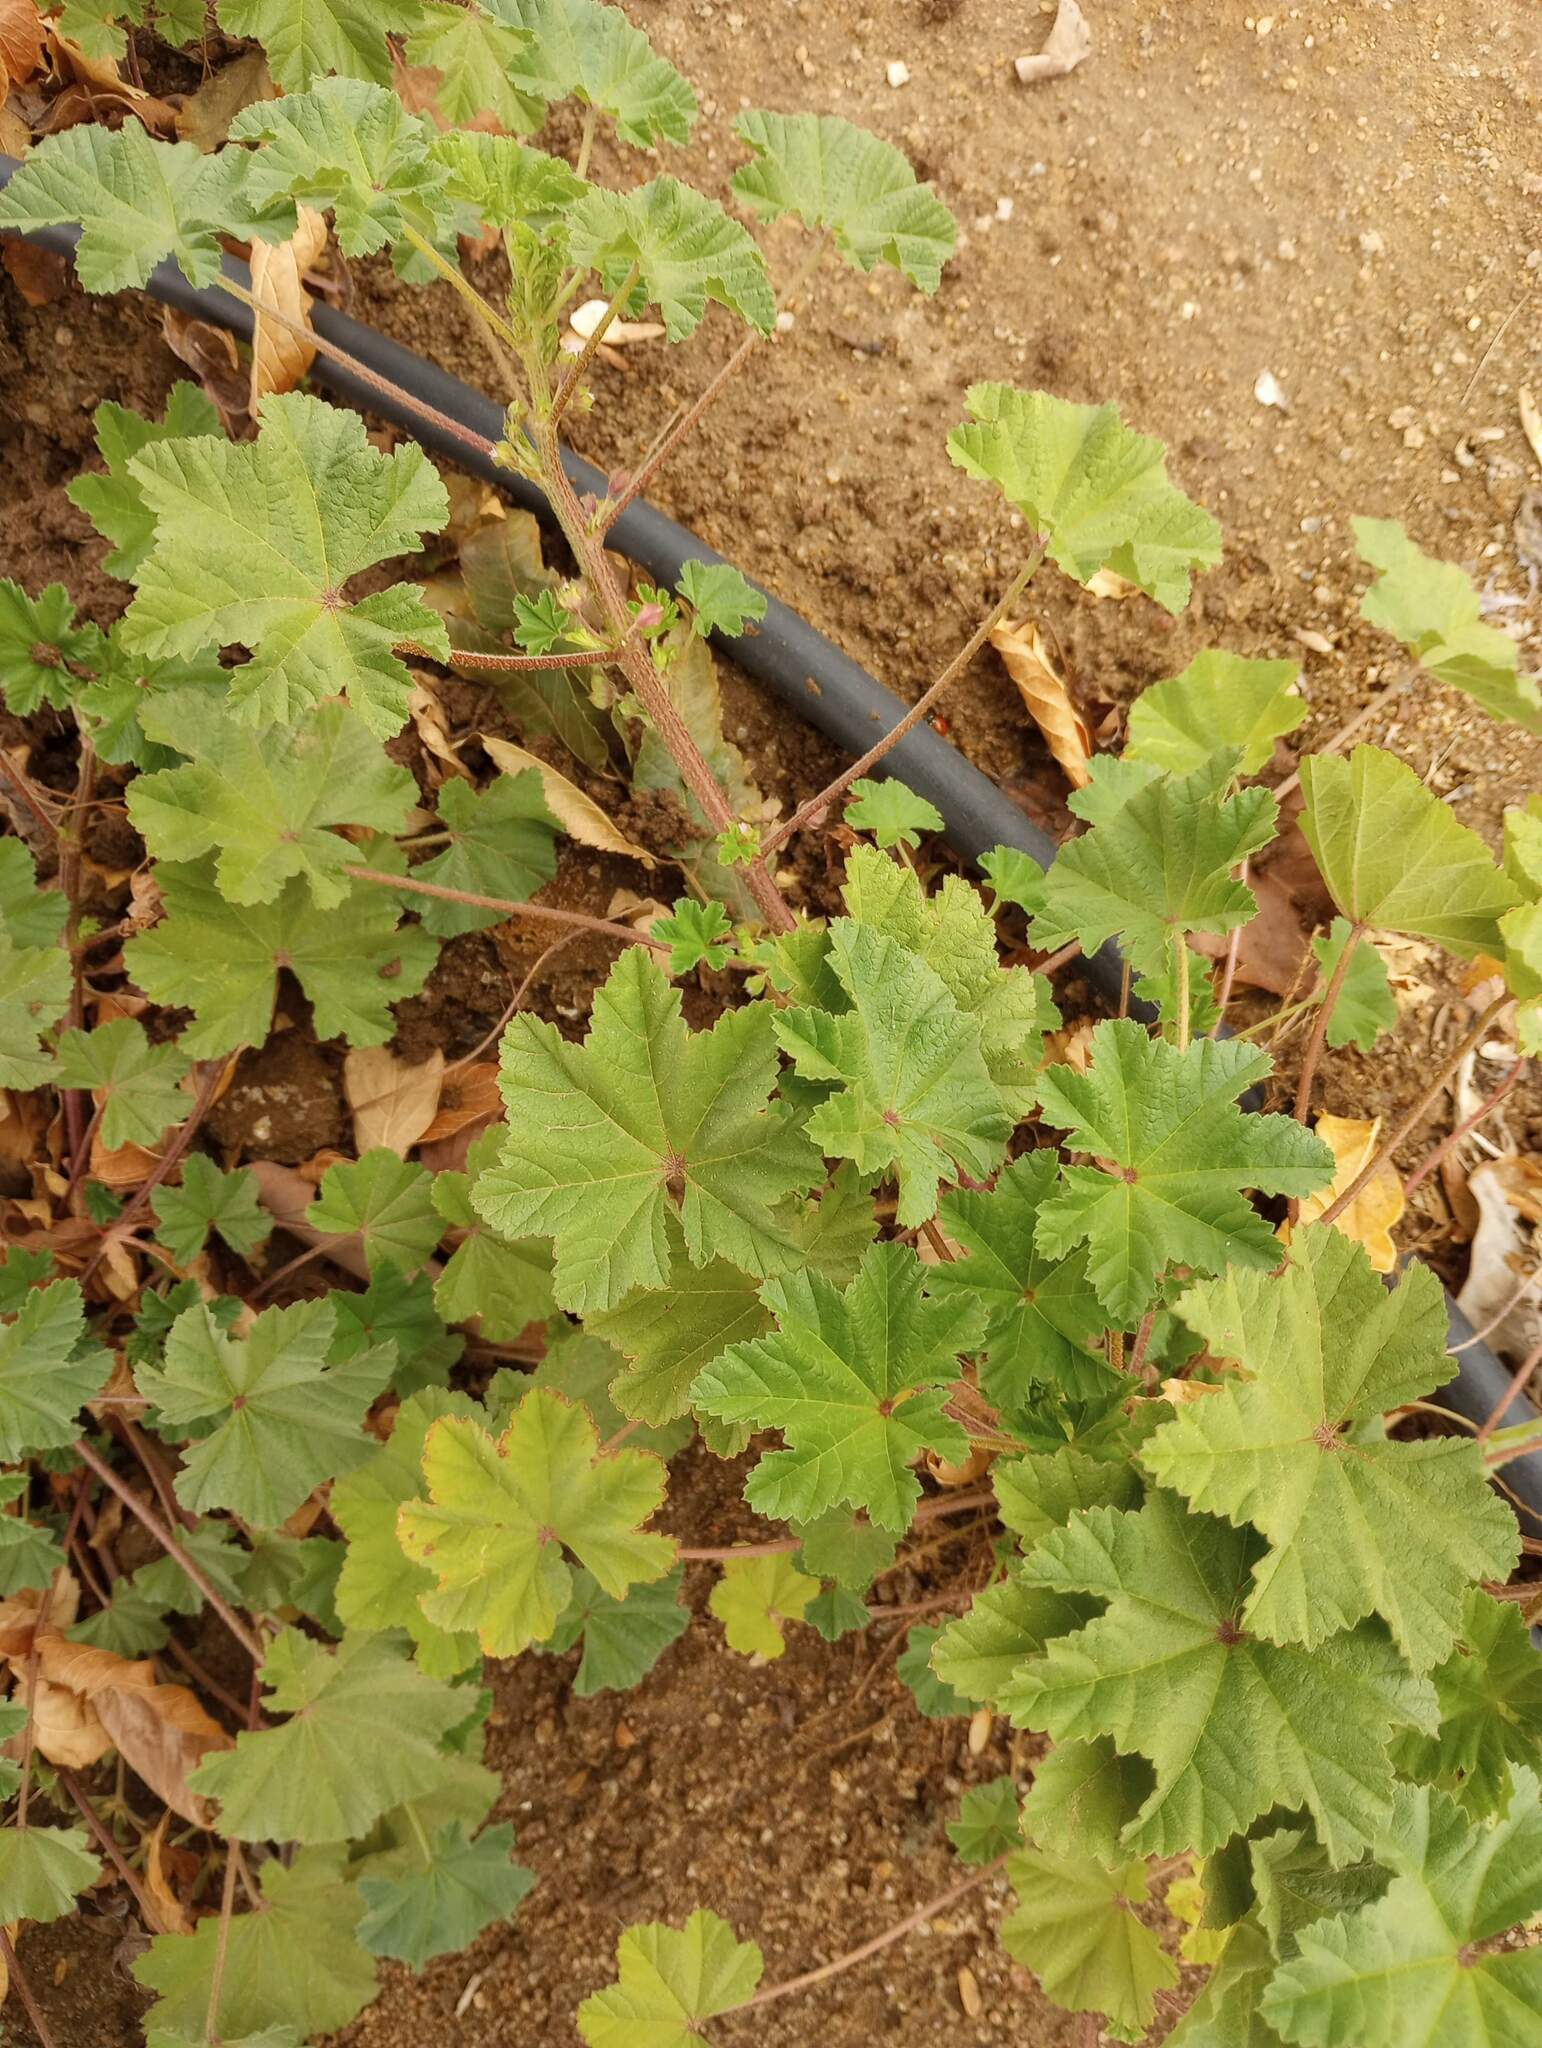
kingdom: Plantae
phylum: Tracheophyta
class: Magnoliopsida
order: Malvales
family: Malvaceae
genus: Malva
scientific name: Malva parviflora
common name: Least mallow
